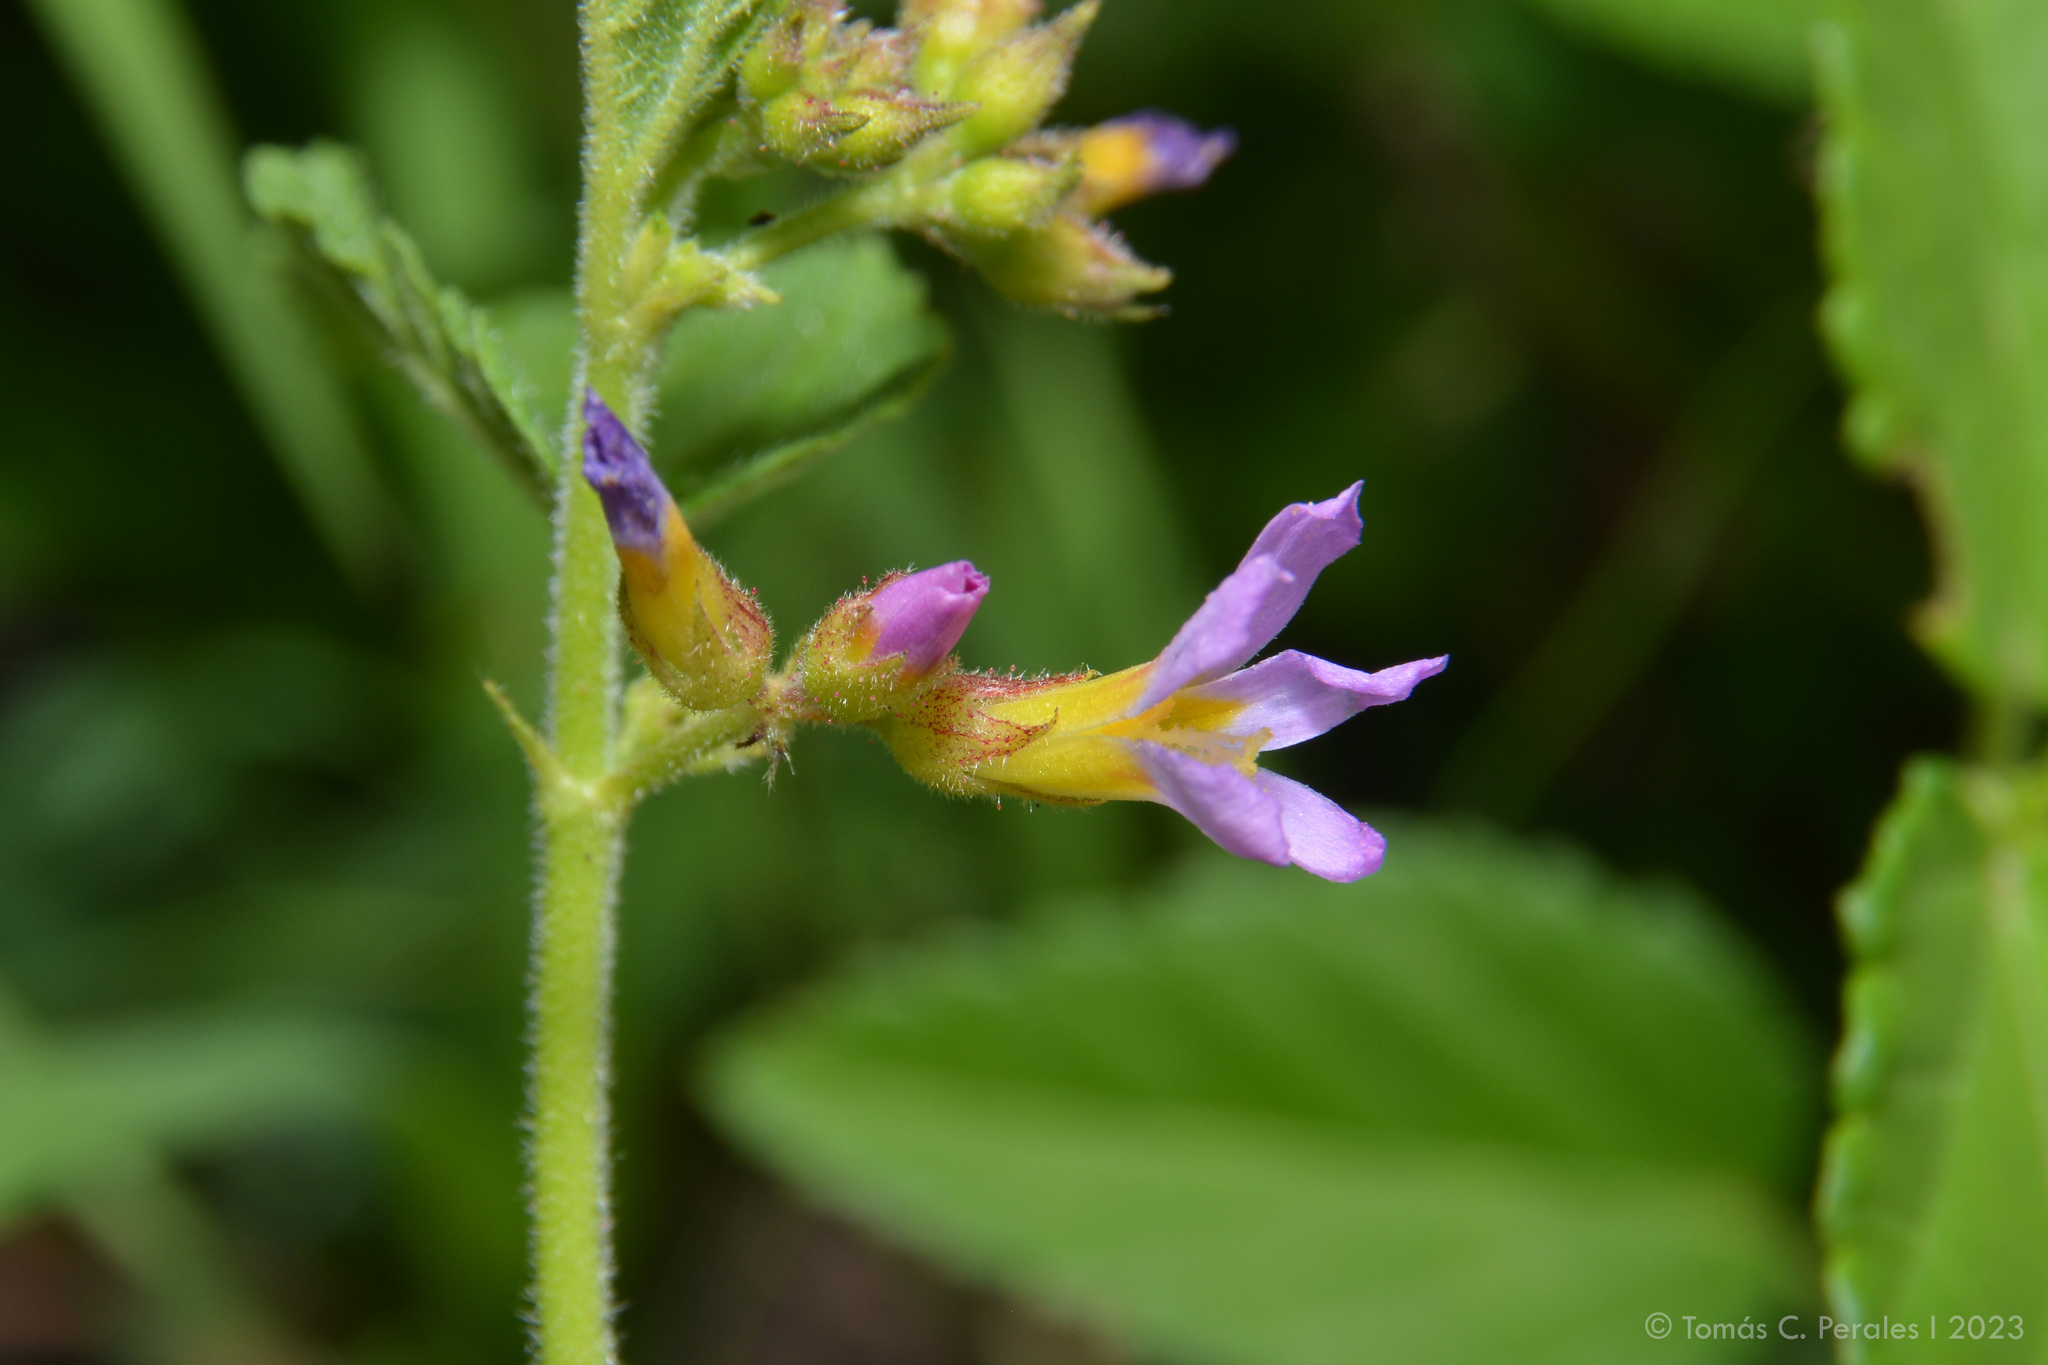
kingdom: Plantae
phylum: Tracheophyta
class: Magnoliopsida
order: Malvales
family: Malvaceae
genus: Melochia
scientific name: Melochia pyramidata
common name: Pyramidflower
